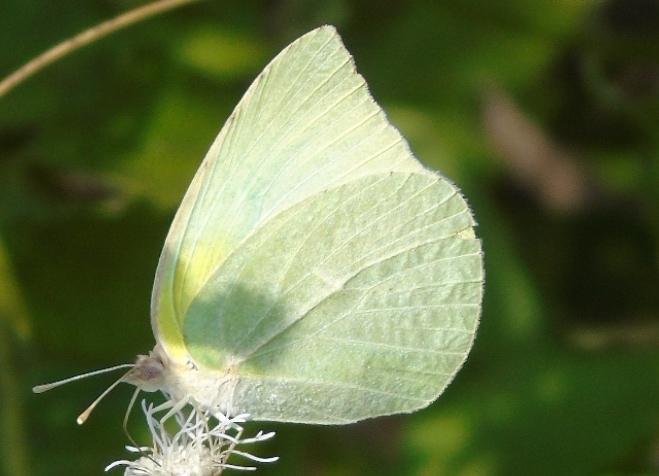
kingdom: Animalia
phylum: Arthropoda
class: Insecta
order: Lepidoptera
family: Pieridae
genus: Kricogonia
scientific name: Kricogonia lyside
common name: Guayacan sulphur,
